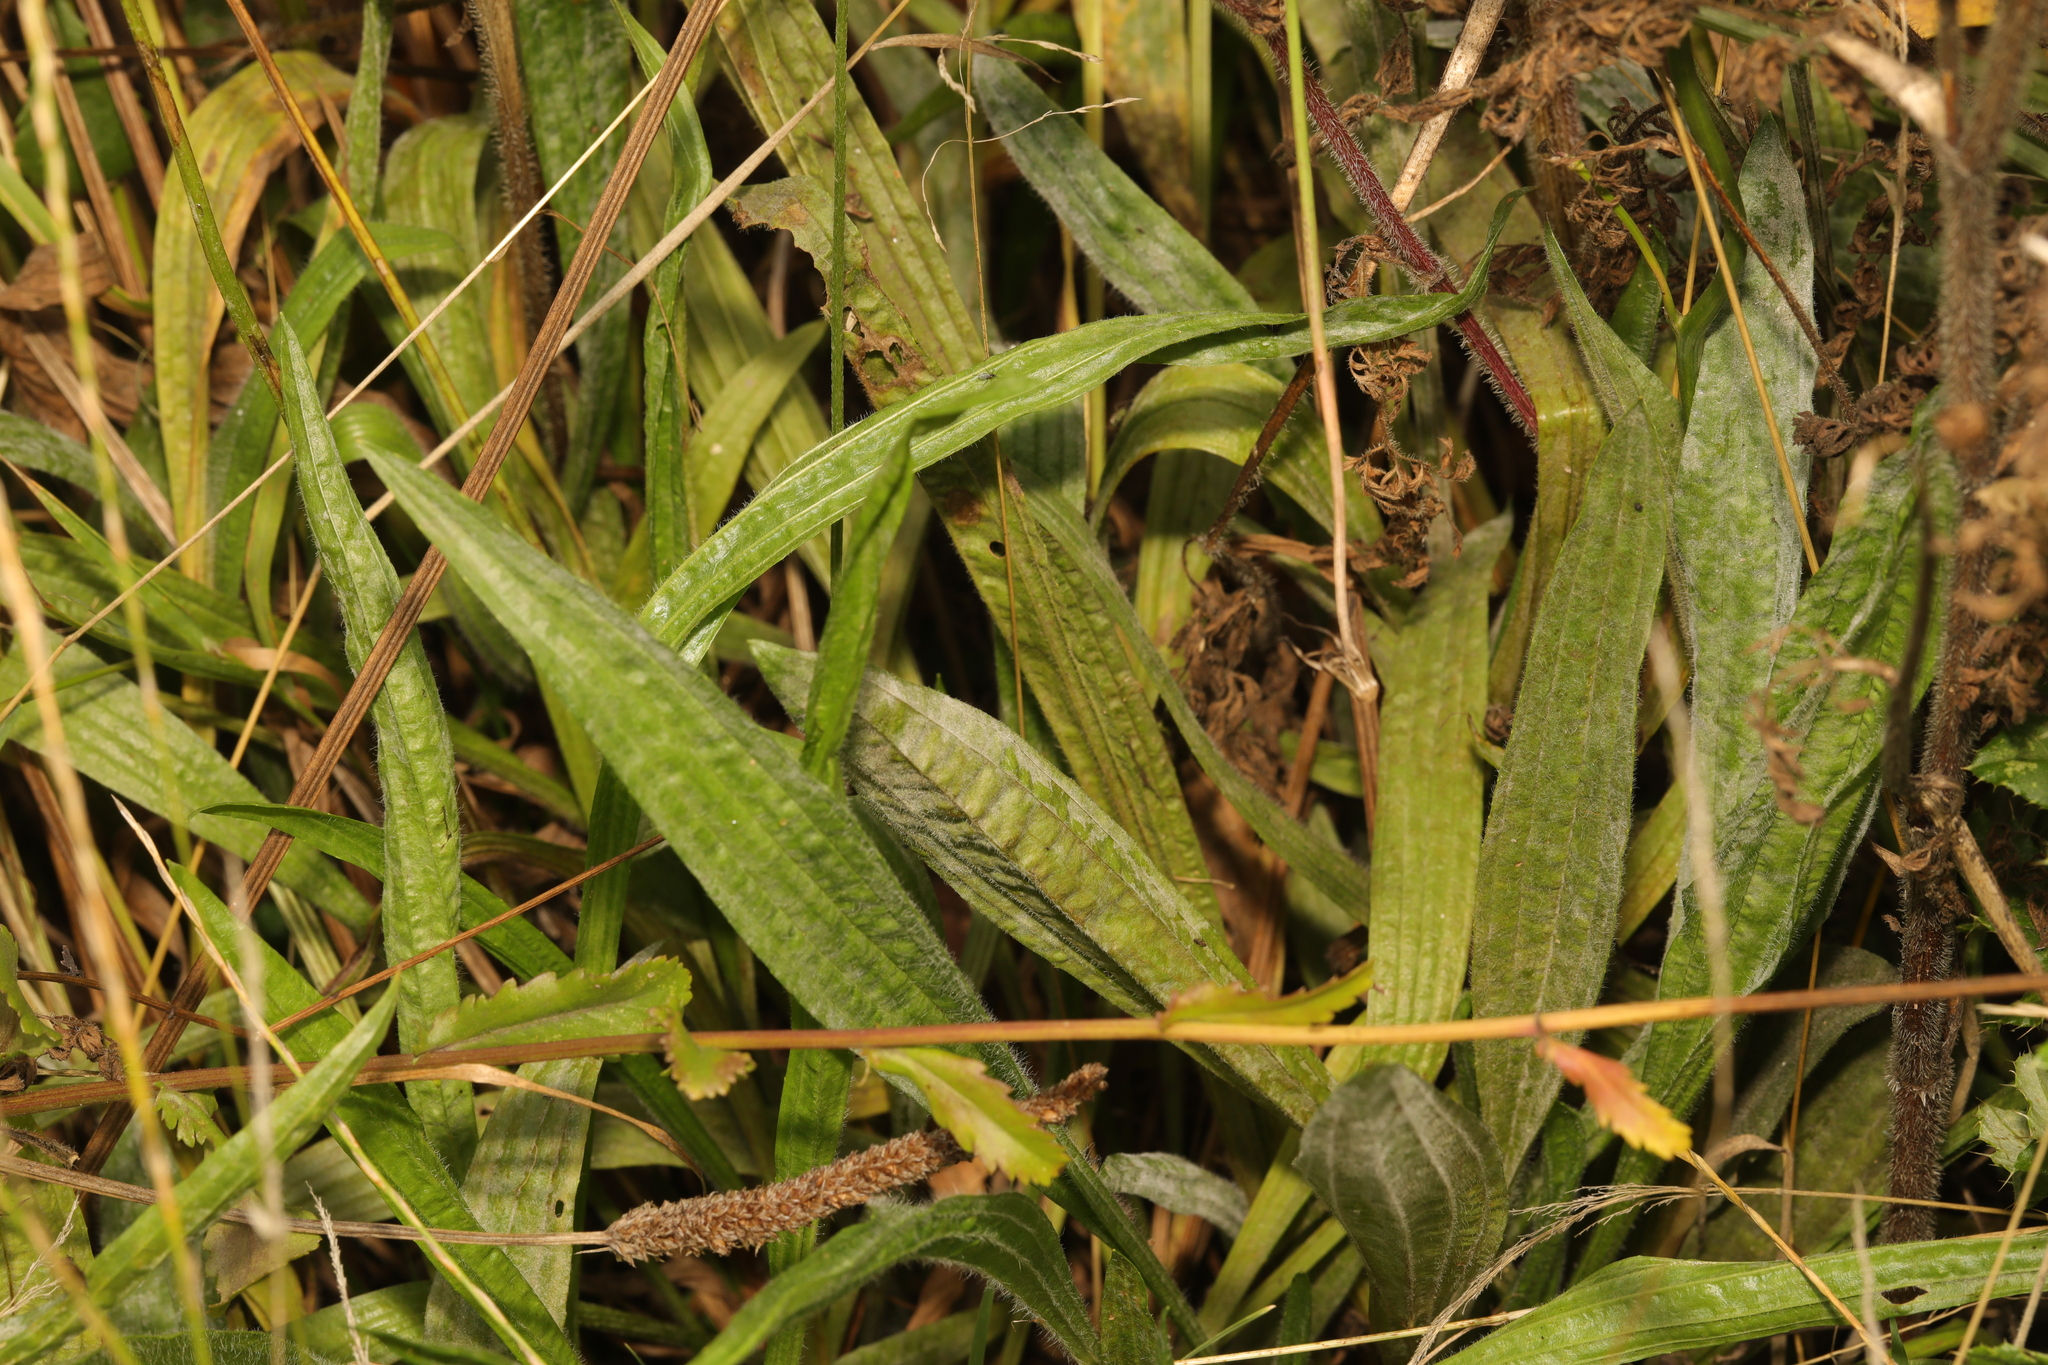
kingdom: Plantae
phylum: Tracheophyta
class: Magnoliopsida
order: Lamiales
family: Plantaginaceae
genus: Plantago
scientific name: Plantago lanceolata
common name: Ribwort plantain
